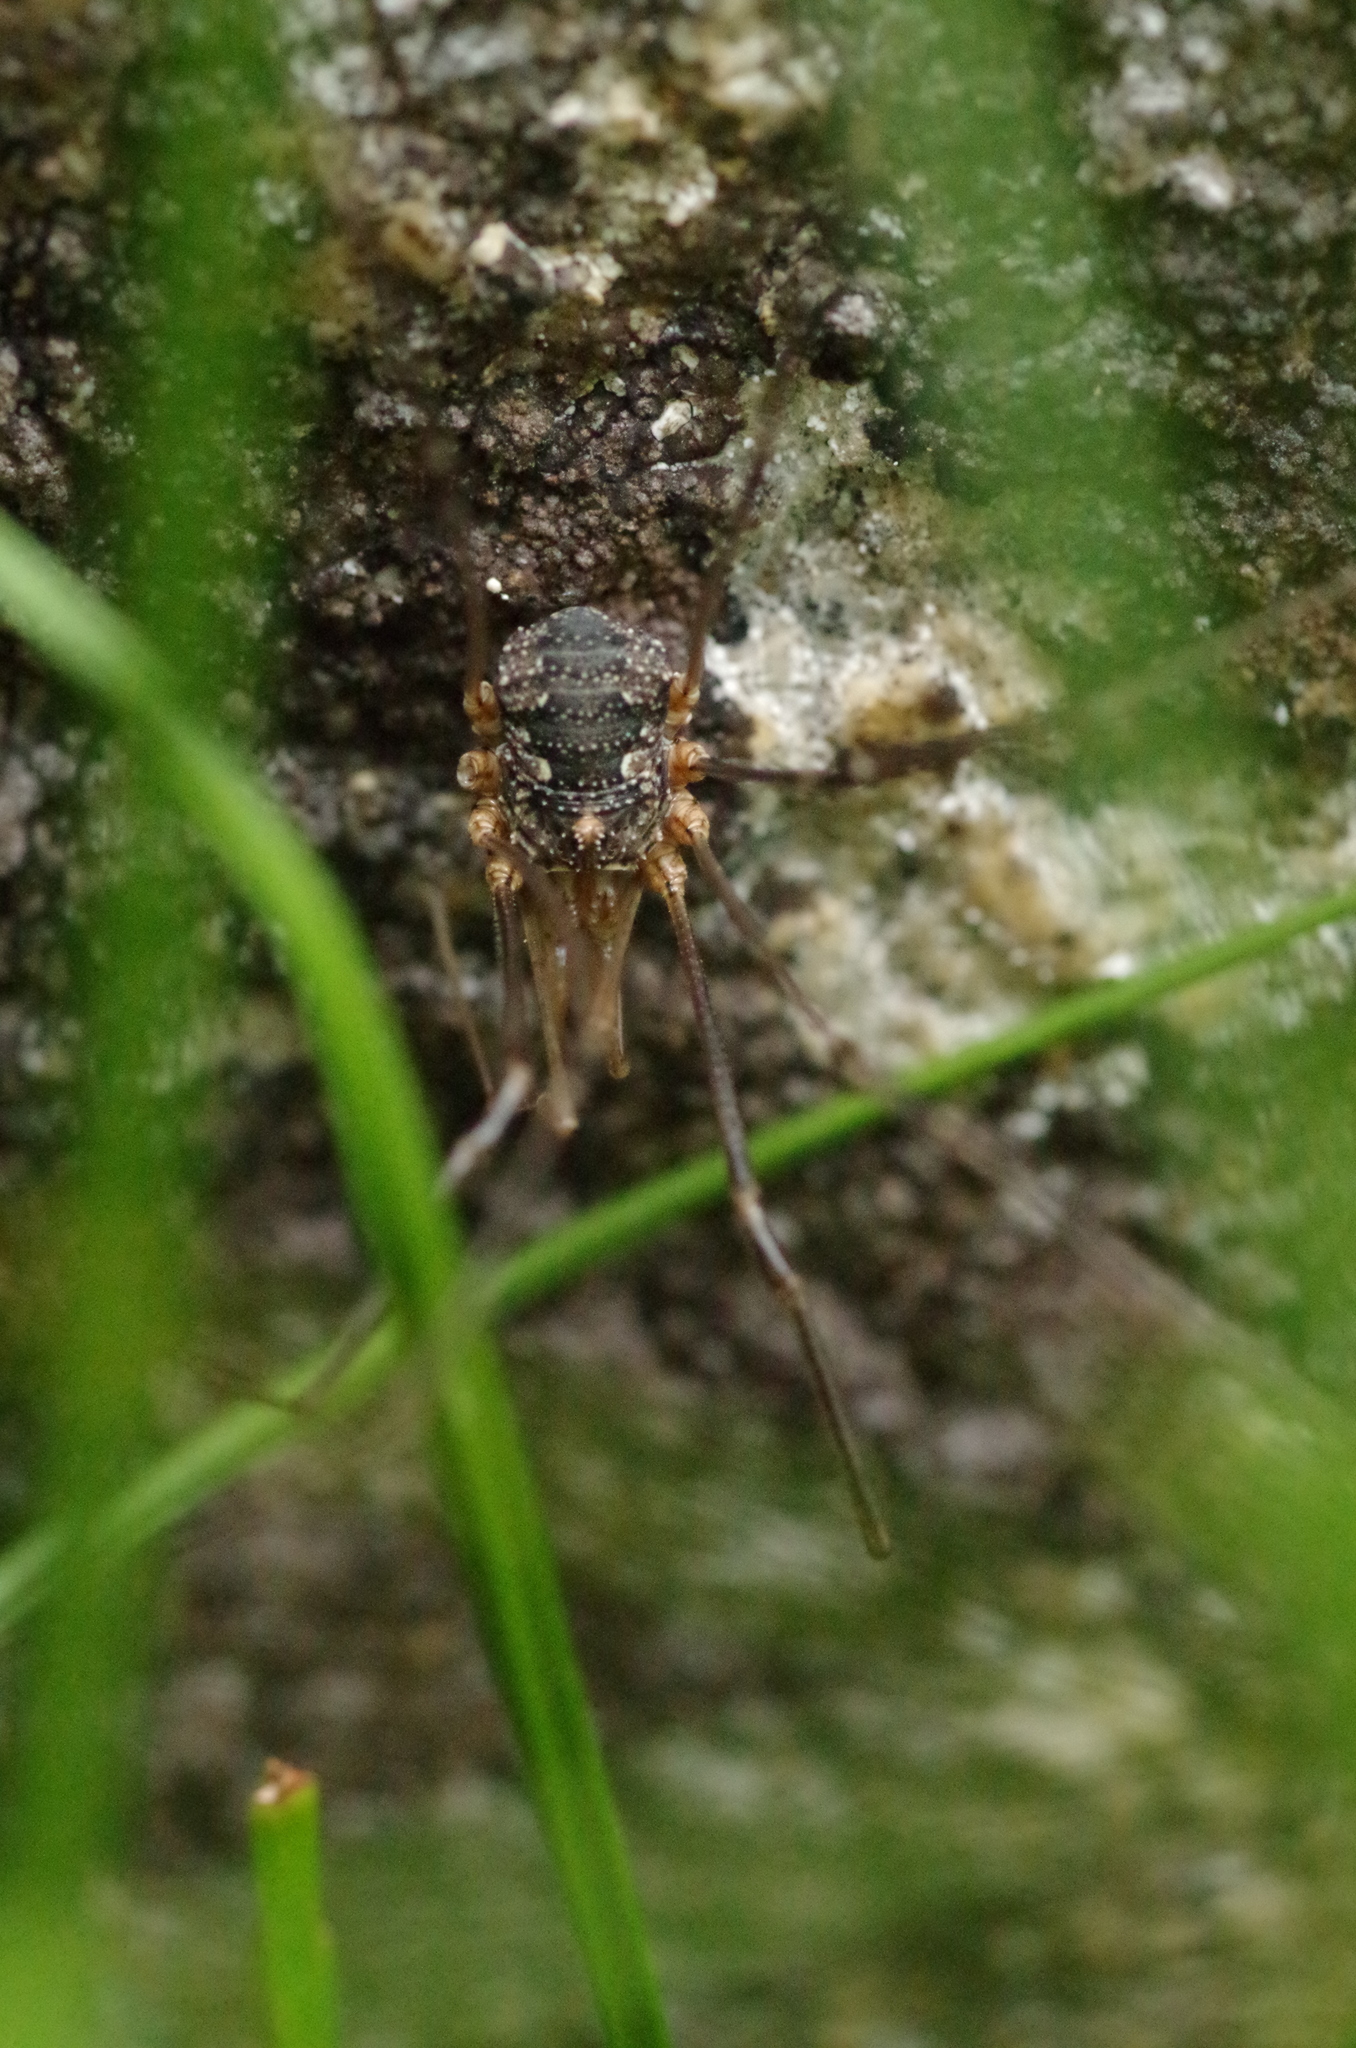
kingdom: Animalia
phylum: Arthropoda
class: Arachnida
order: Opiliones
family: Phalangiidae
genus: Phalangium
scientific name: Phalangium opilio
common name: Daddy longleg
